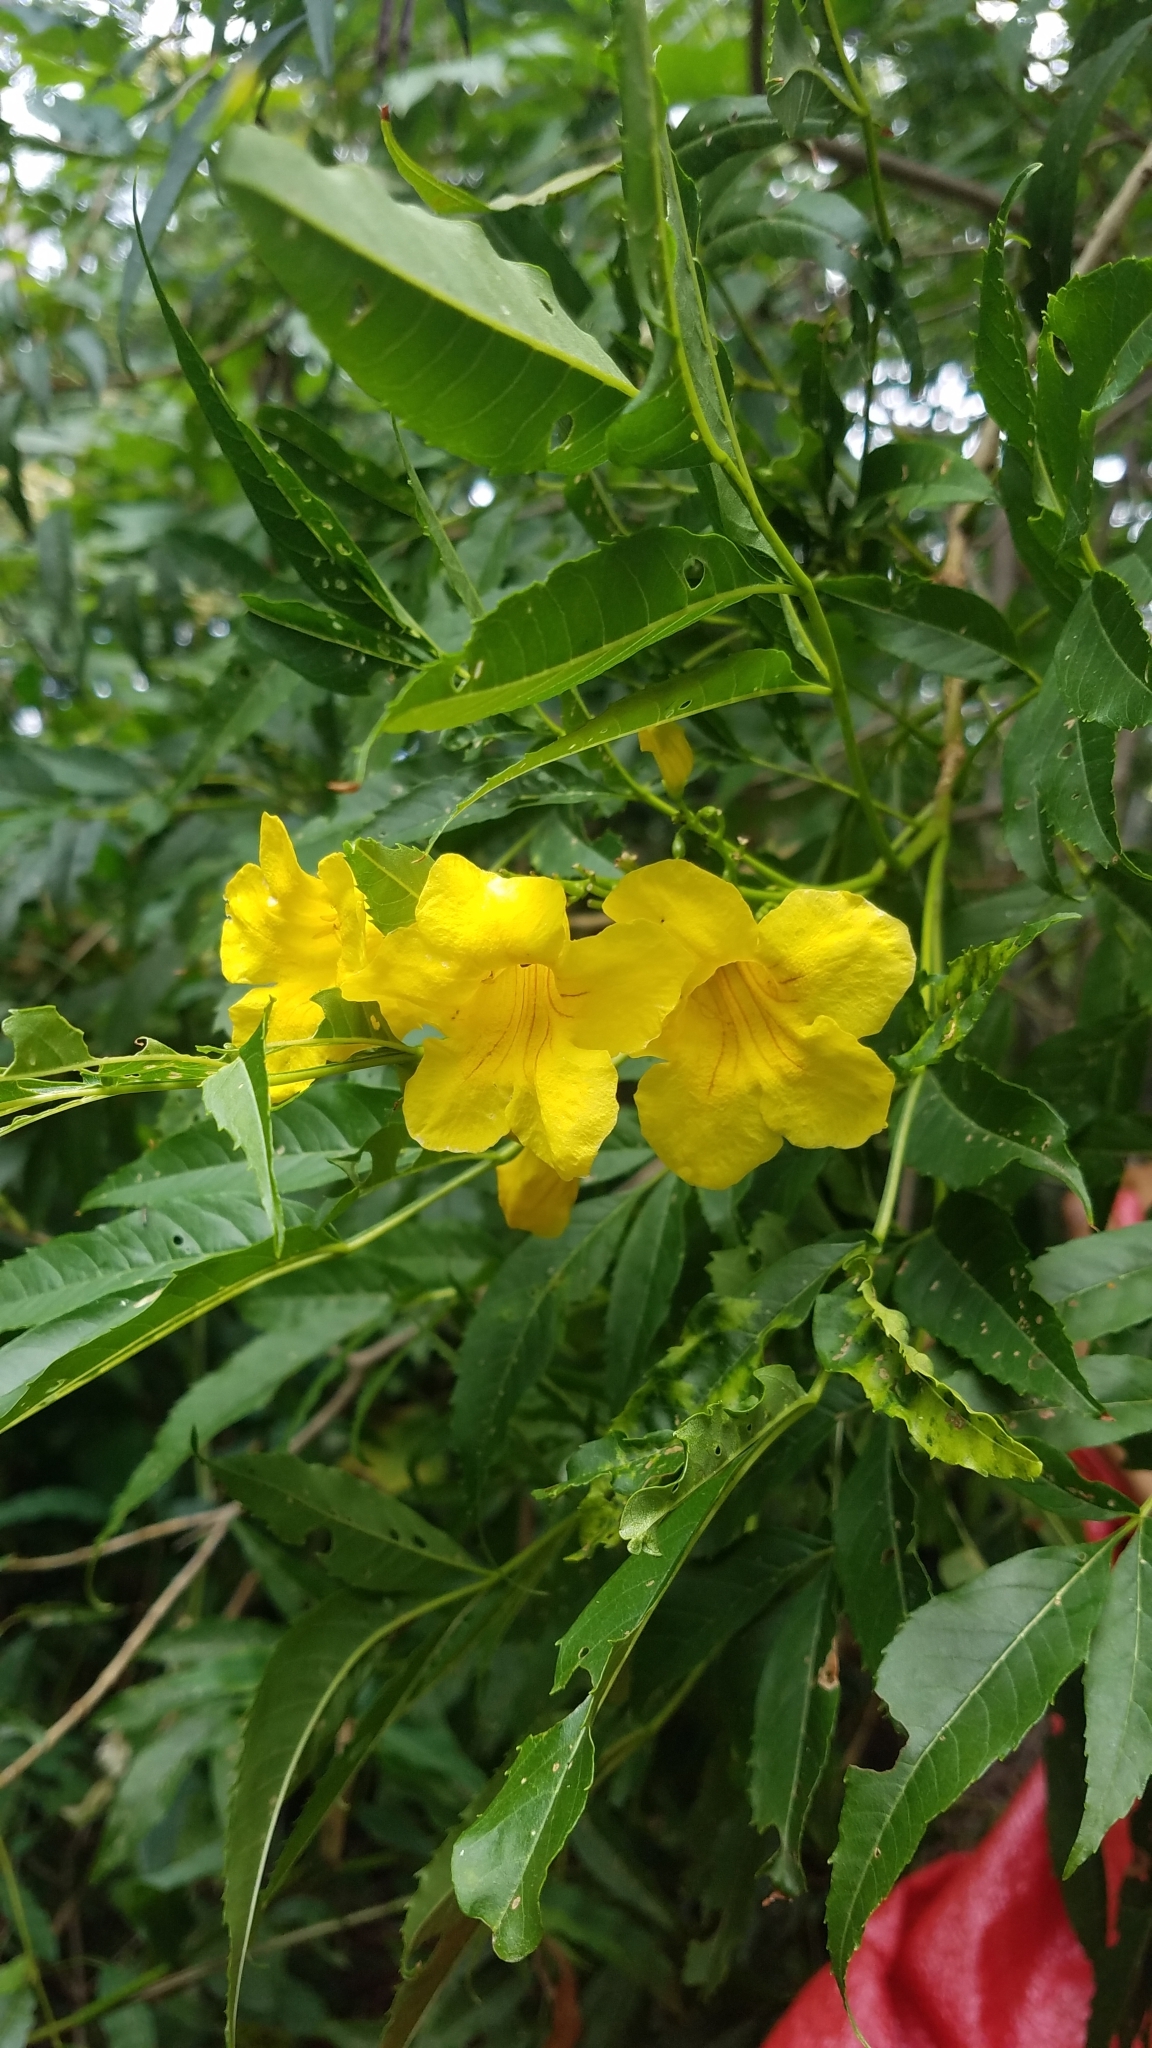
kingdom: Plantae
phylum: Tracheophyta
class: Magnoliopsida
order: Lamiales
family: Bignoniaceae
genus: Tecoma
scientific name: Tecoma stans
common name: Yellow trumpetbush
